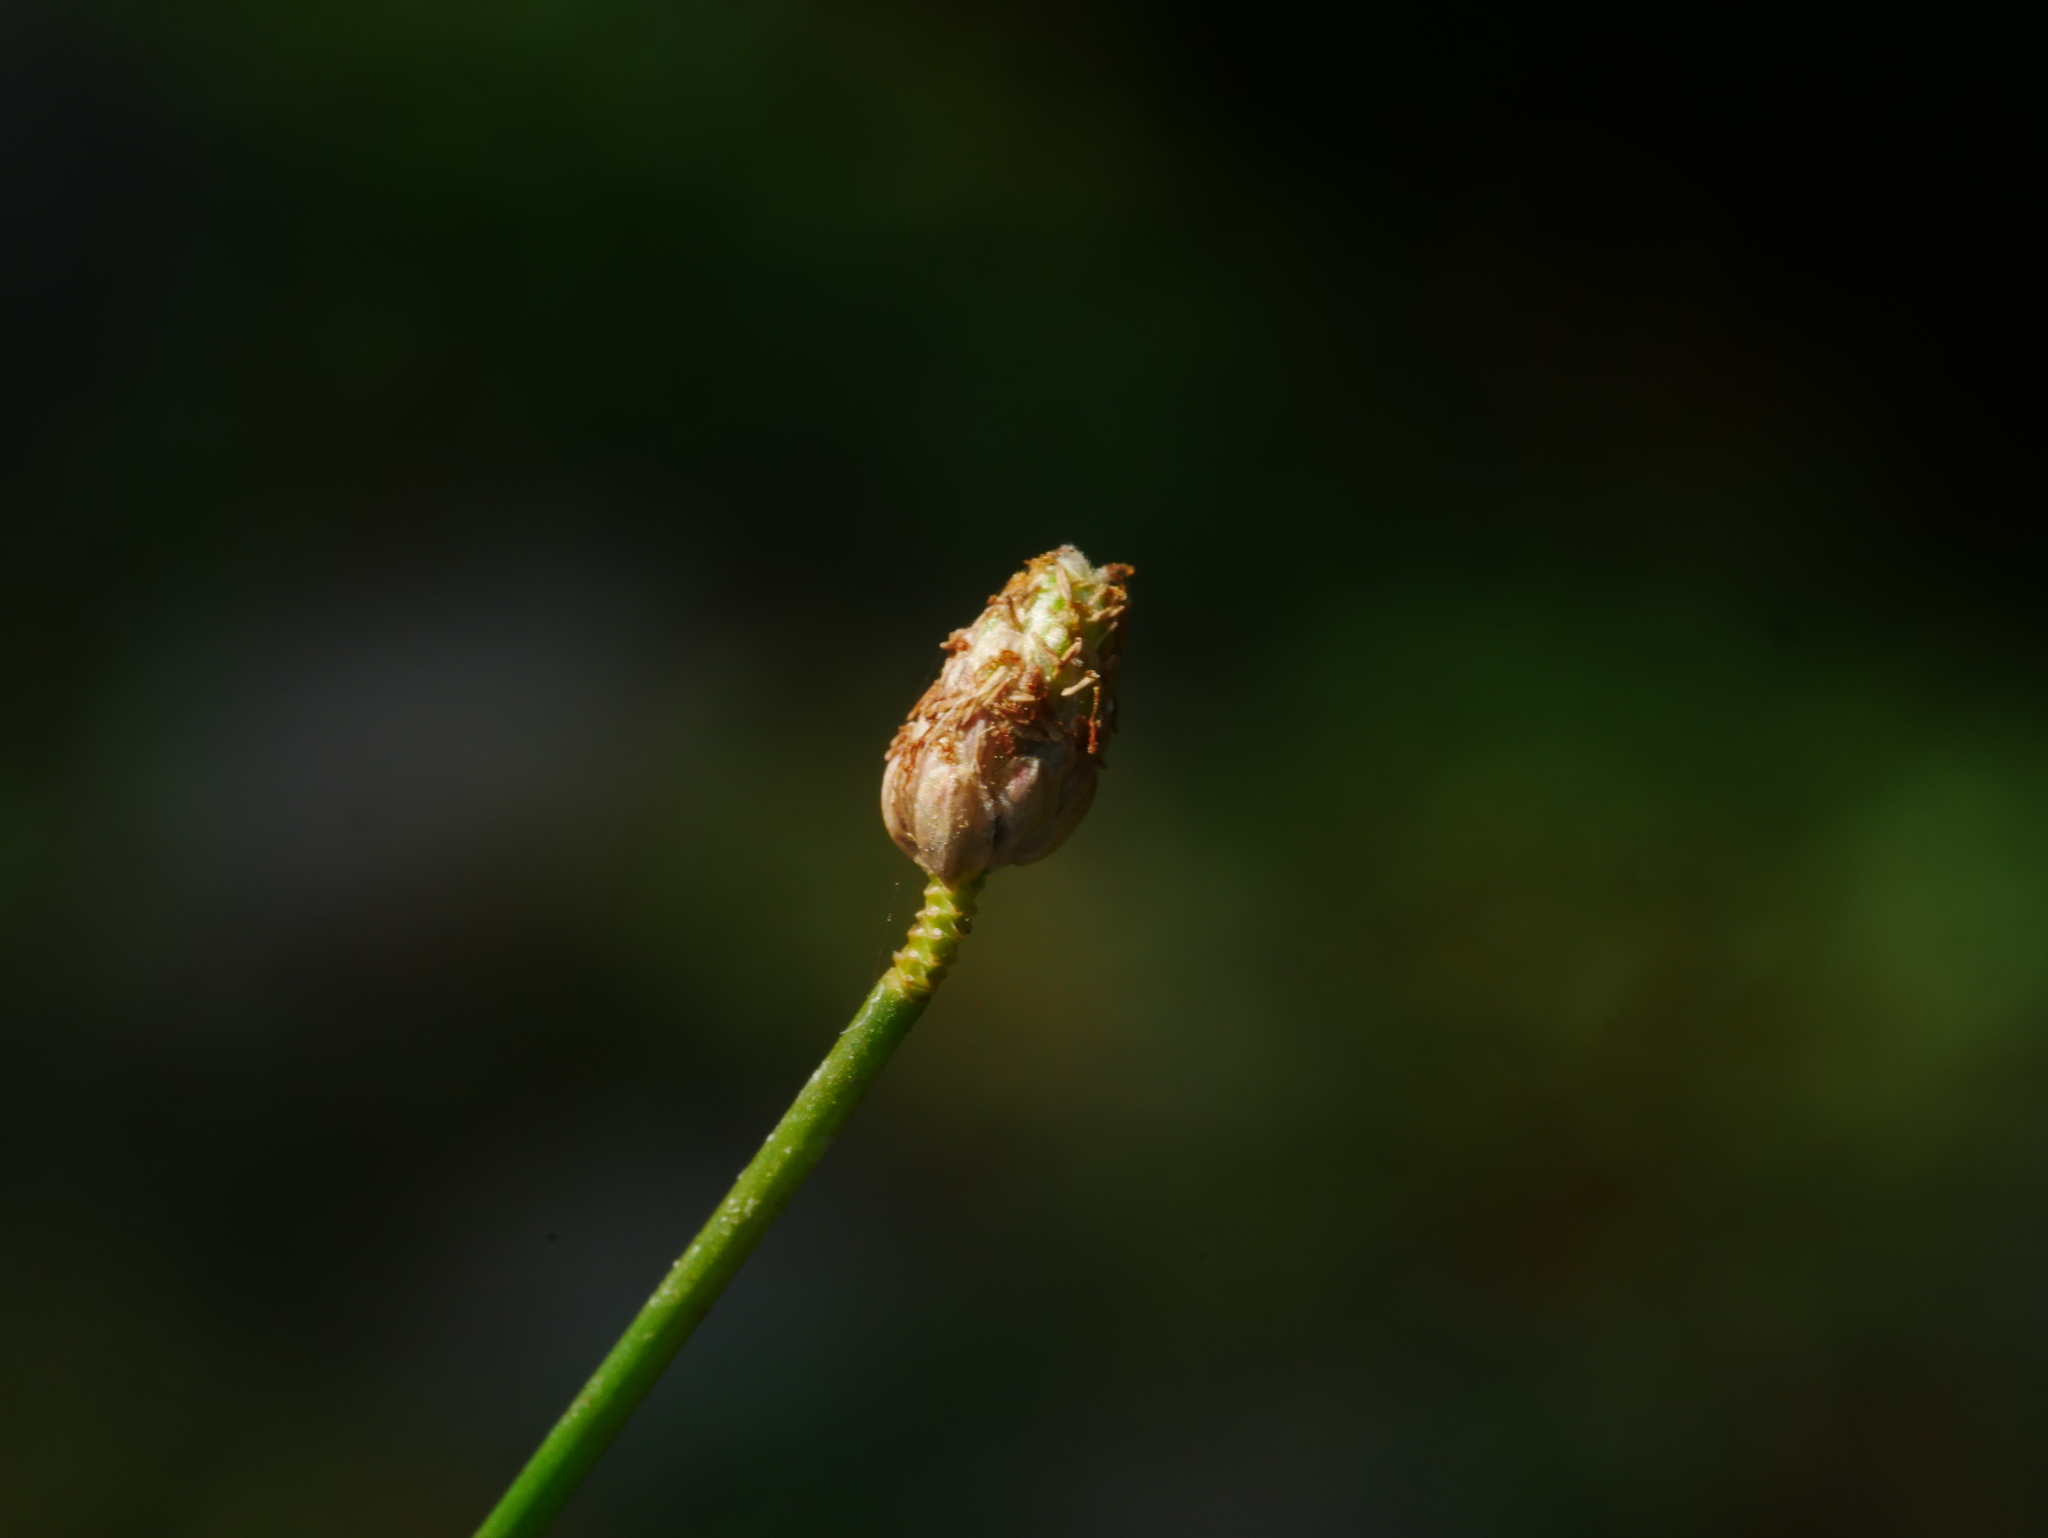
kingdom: Plantae
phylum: Tracheophyta
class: Liliopsida
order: Poales
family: Cyperaceae
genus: Eleocharis
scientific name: Eleocharis geniculata
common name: Canada spikesedge
